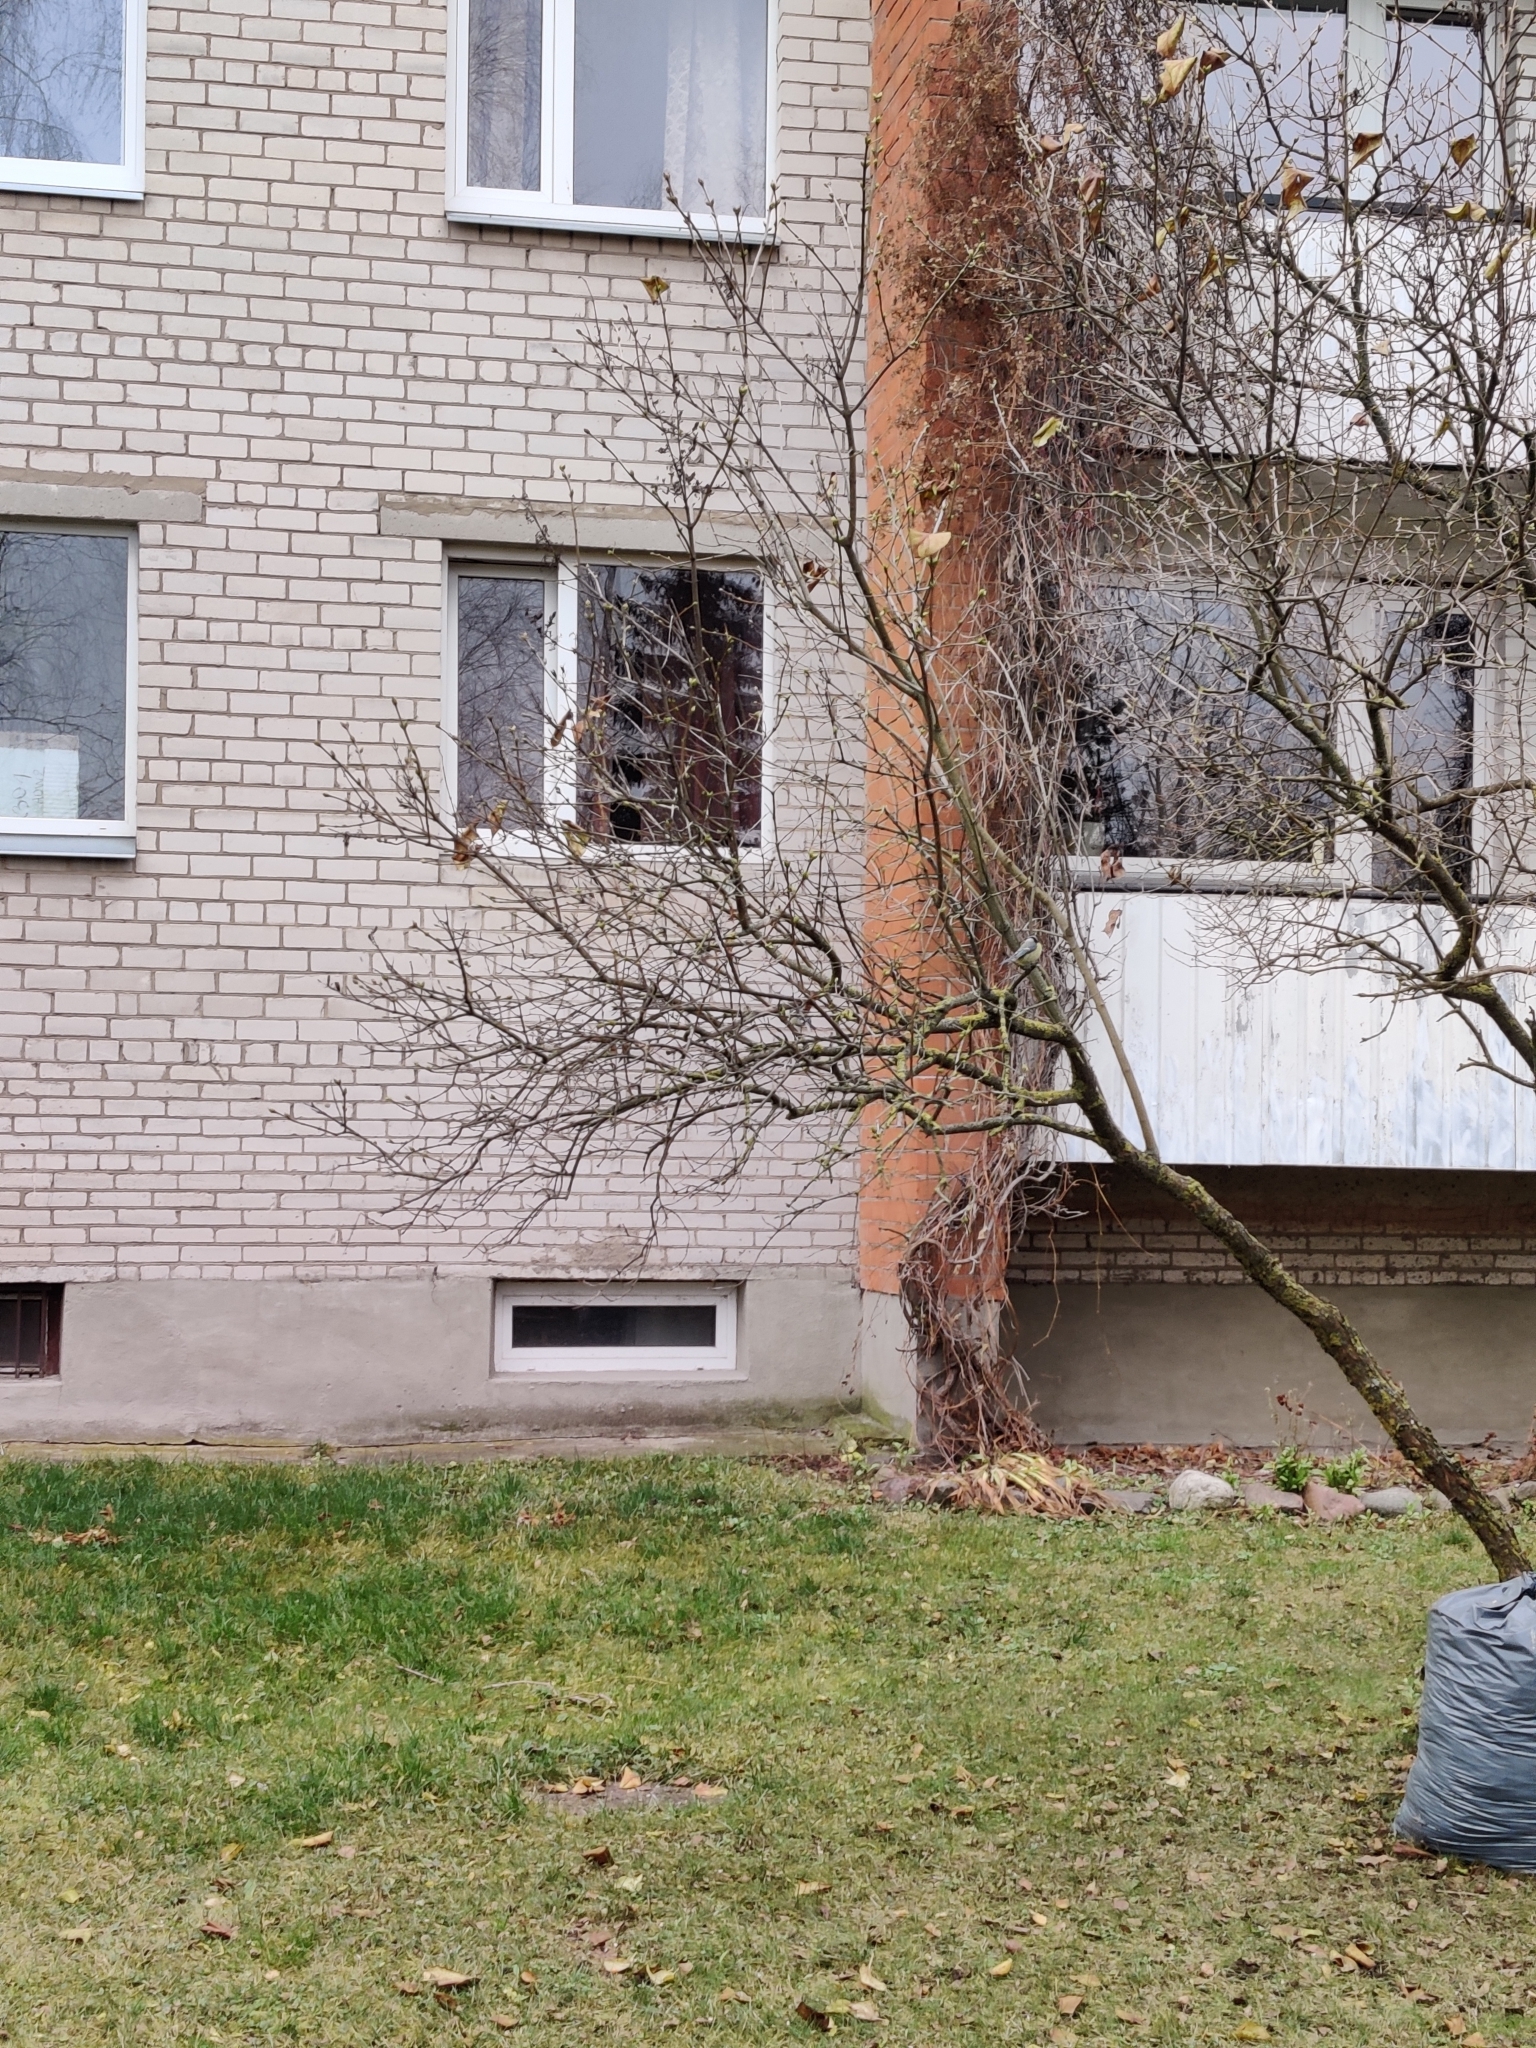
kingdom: Animalia
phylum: Chordata
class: Aves
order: Passeriformes
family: Paridae
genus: Parus
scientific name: Parus major
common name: Great tit
